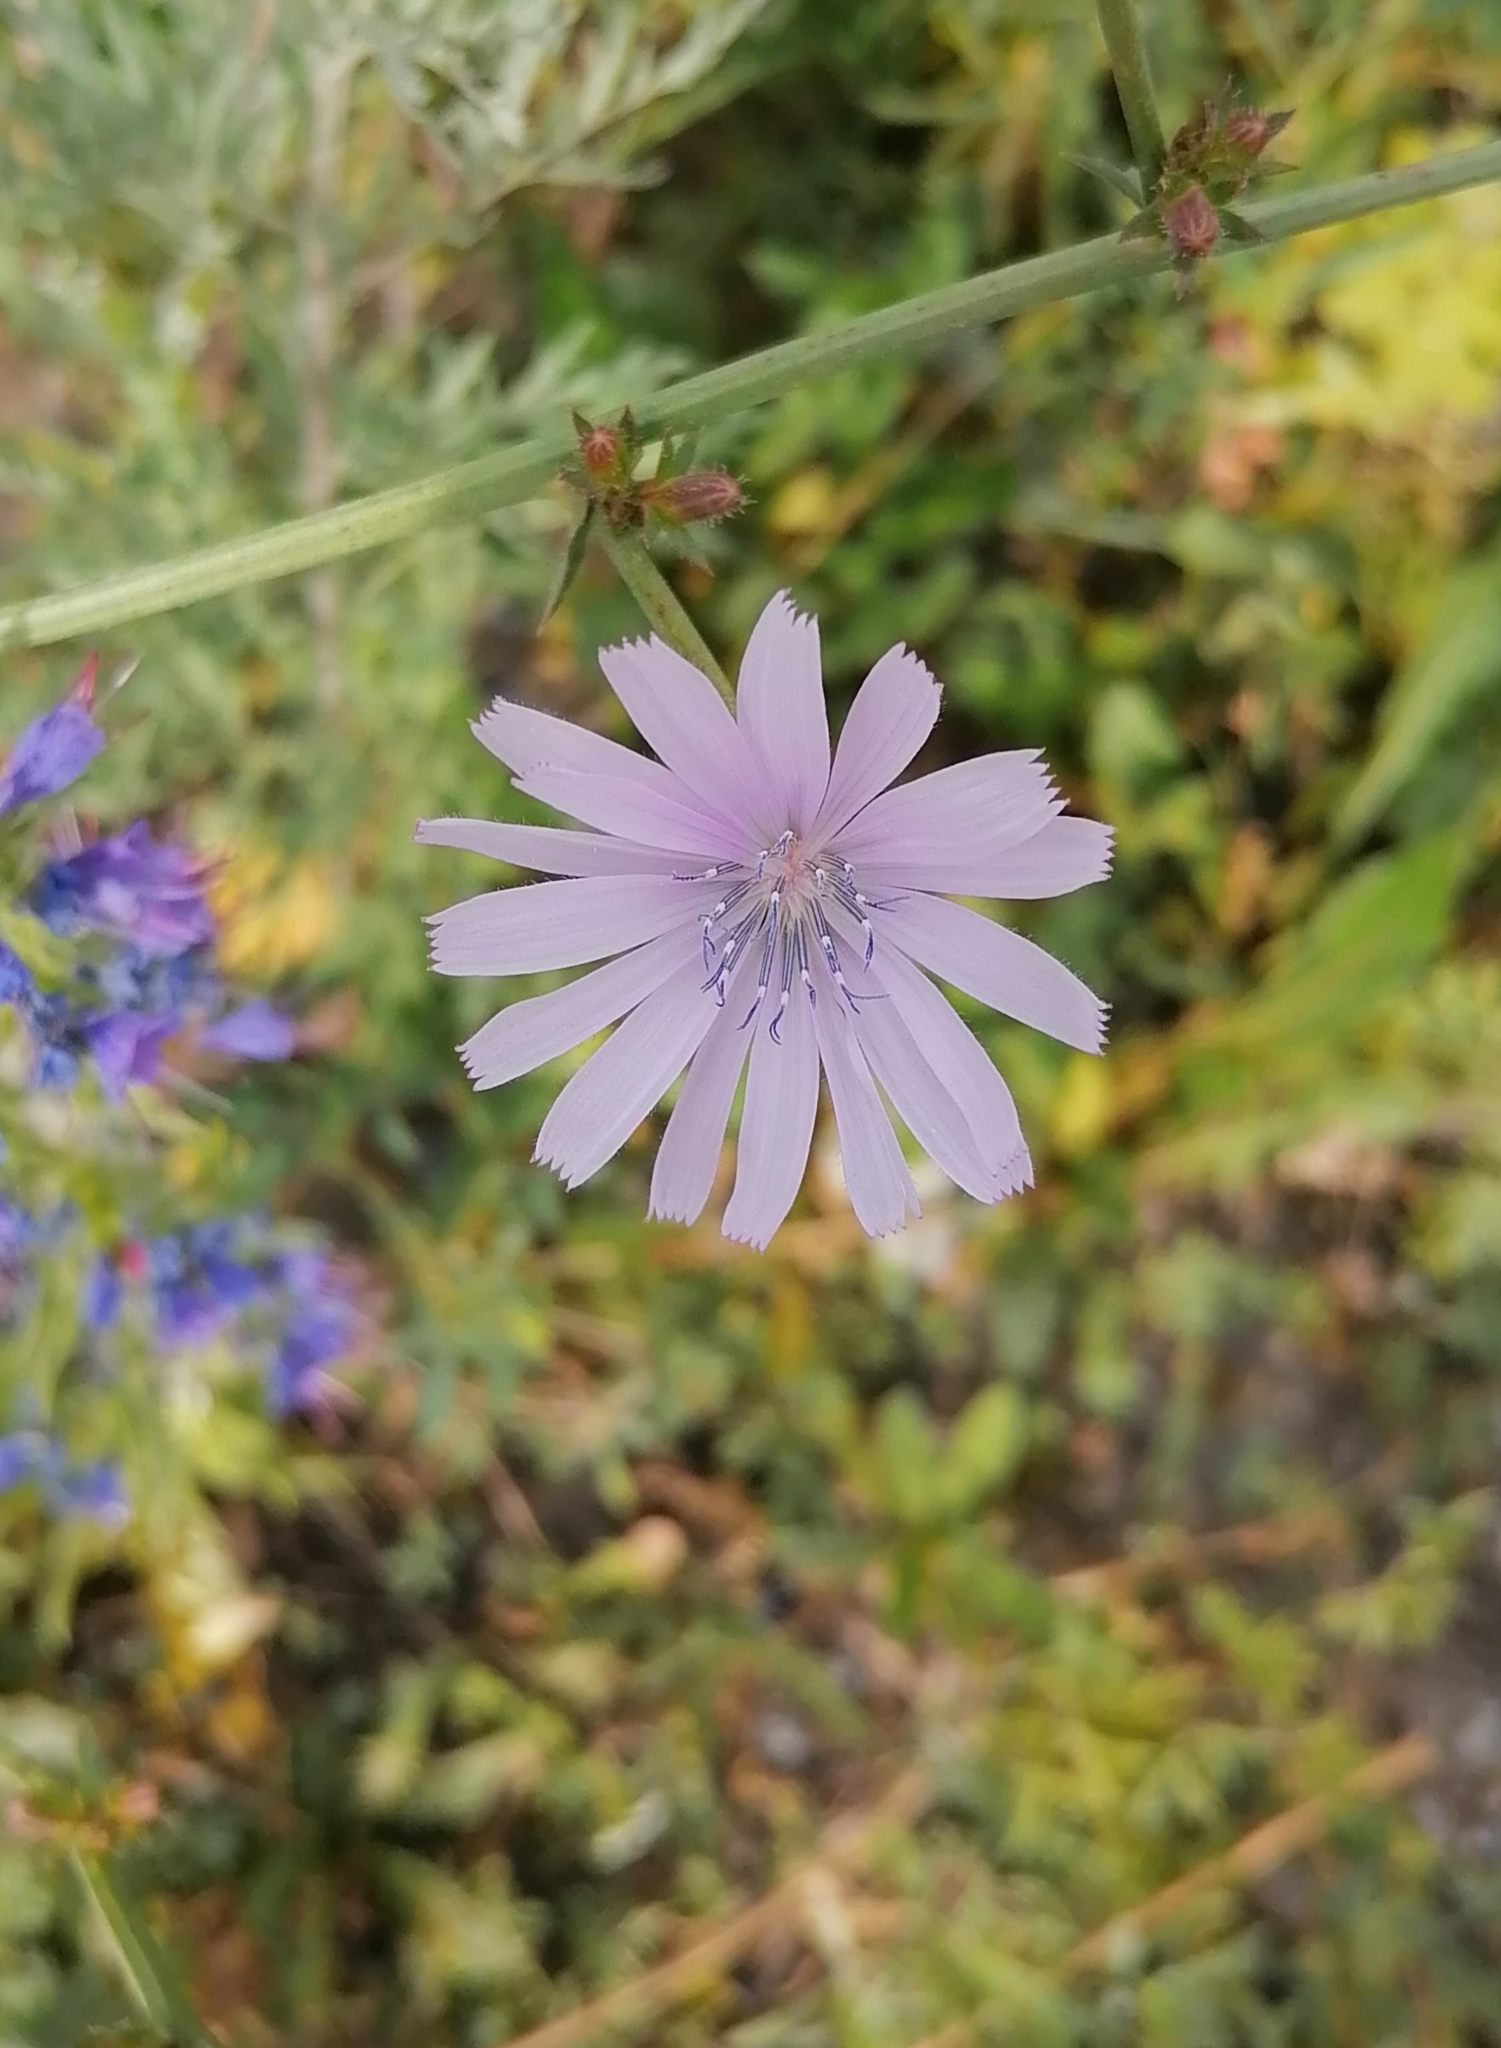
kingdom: Plantae
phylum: Tracheophyta
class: Magnoliopsida
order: Asterales
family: Asteraceae
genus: Cichorium
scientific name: Cichorium intybus
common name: Chicory
